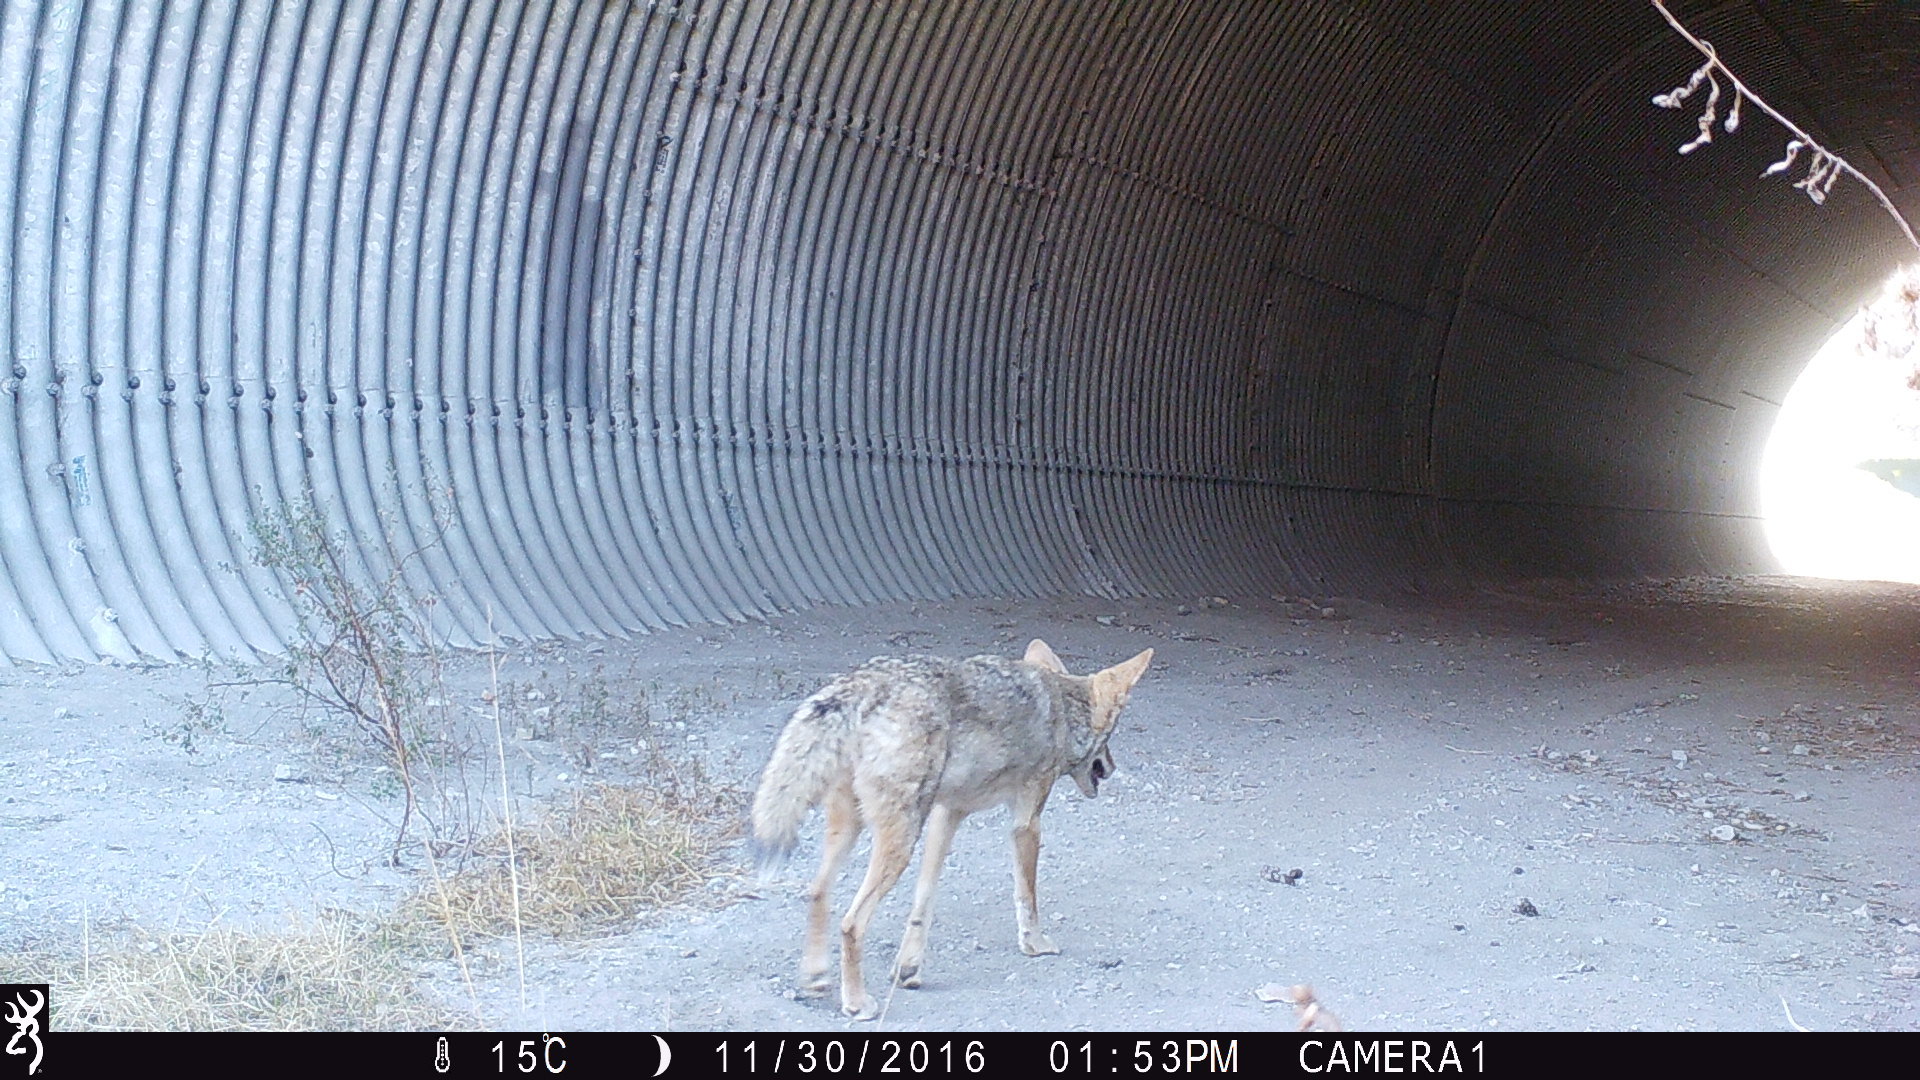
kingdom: Animalia
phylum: Chordata
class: Mammalia
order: Carnivora
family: Canidae
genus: Canis
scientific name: Canis latrans
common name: Coyote
